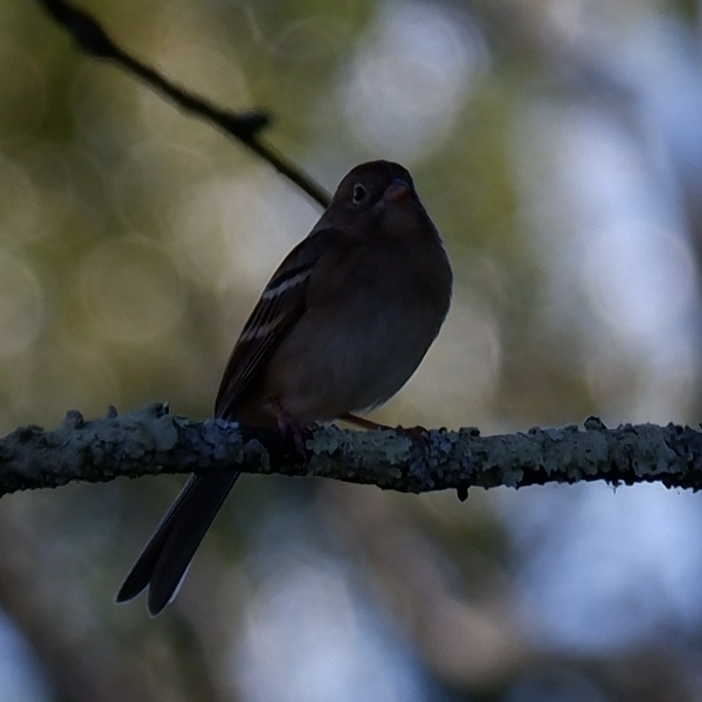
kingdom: Animalia
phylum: Chordata
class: Aves
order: Passeriformes
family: Passerellidae
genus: Spizella
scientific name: Spizella pusilla
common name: Field sparrow
